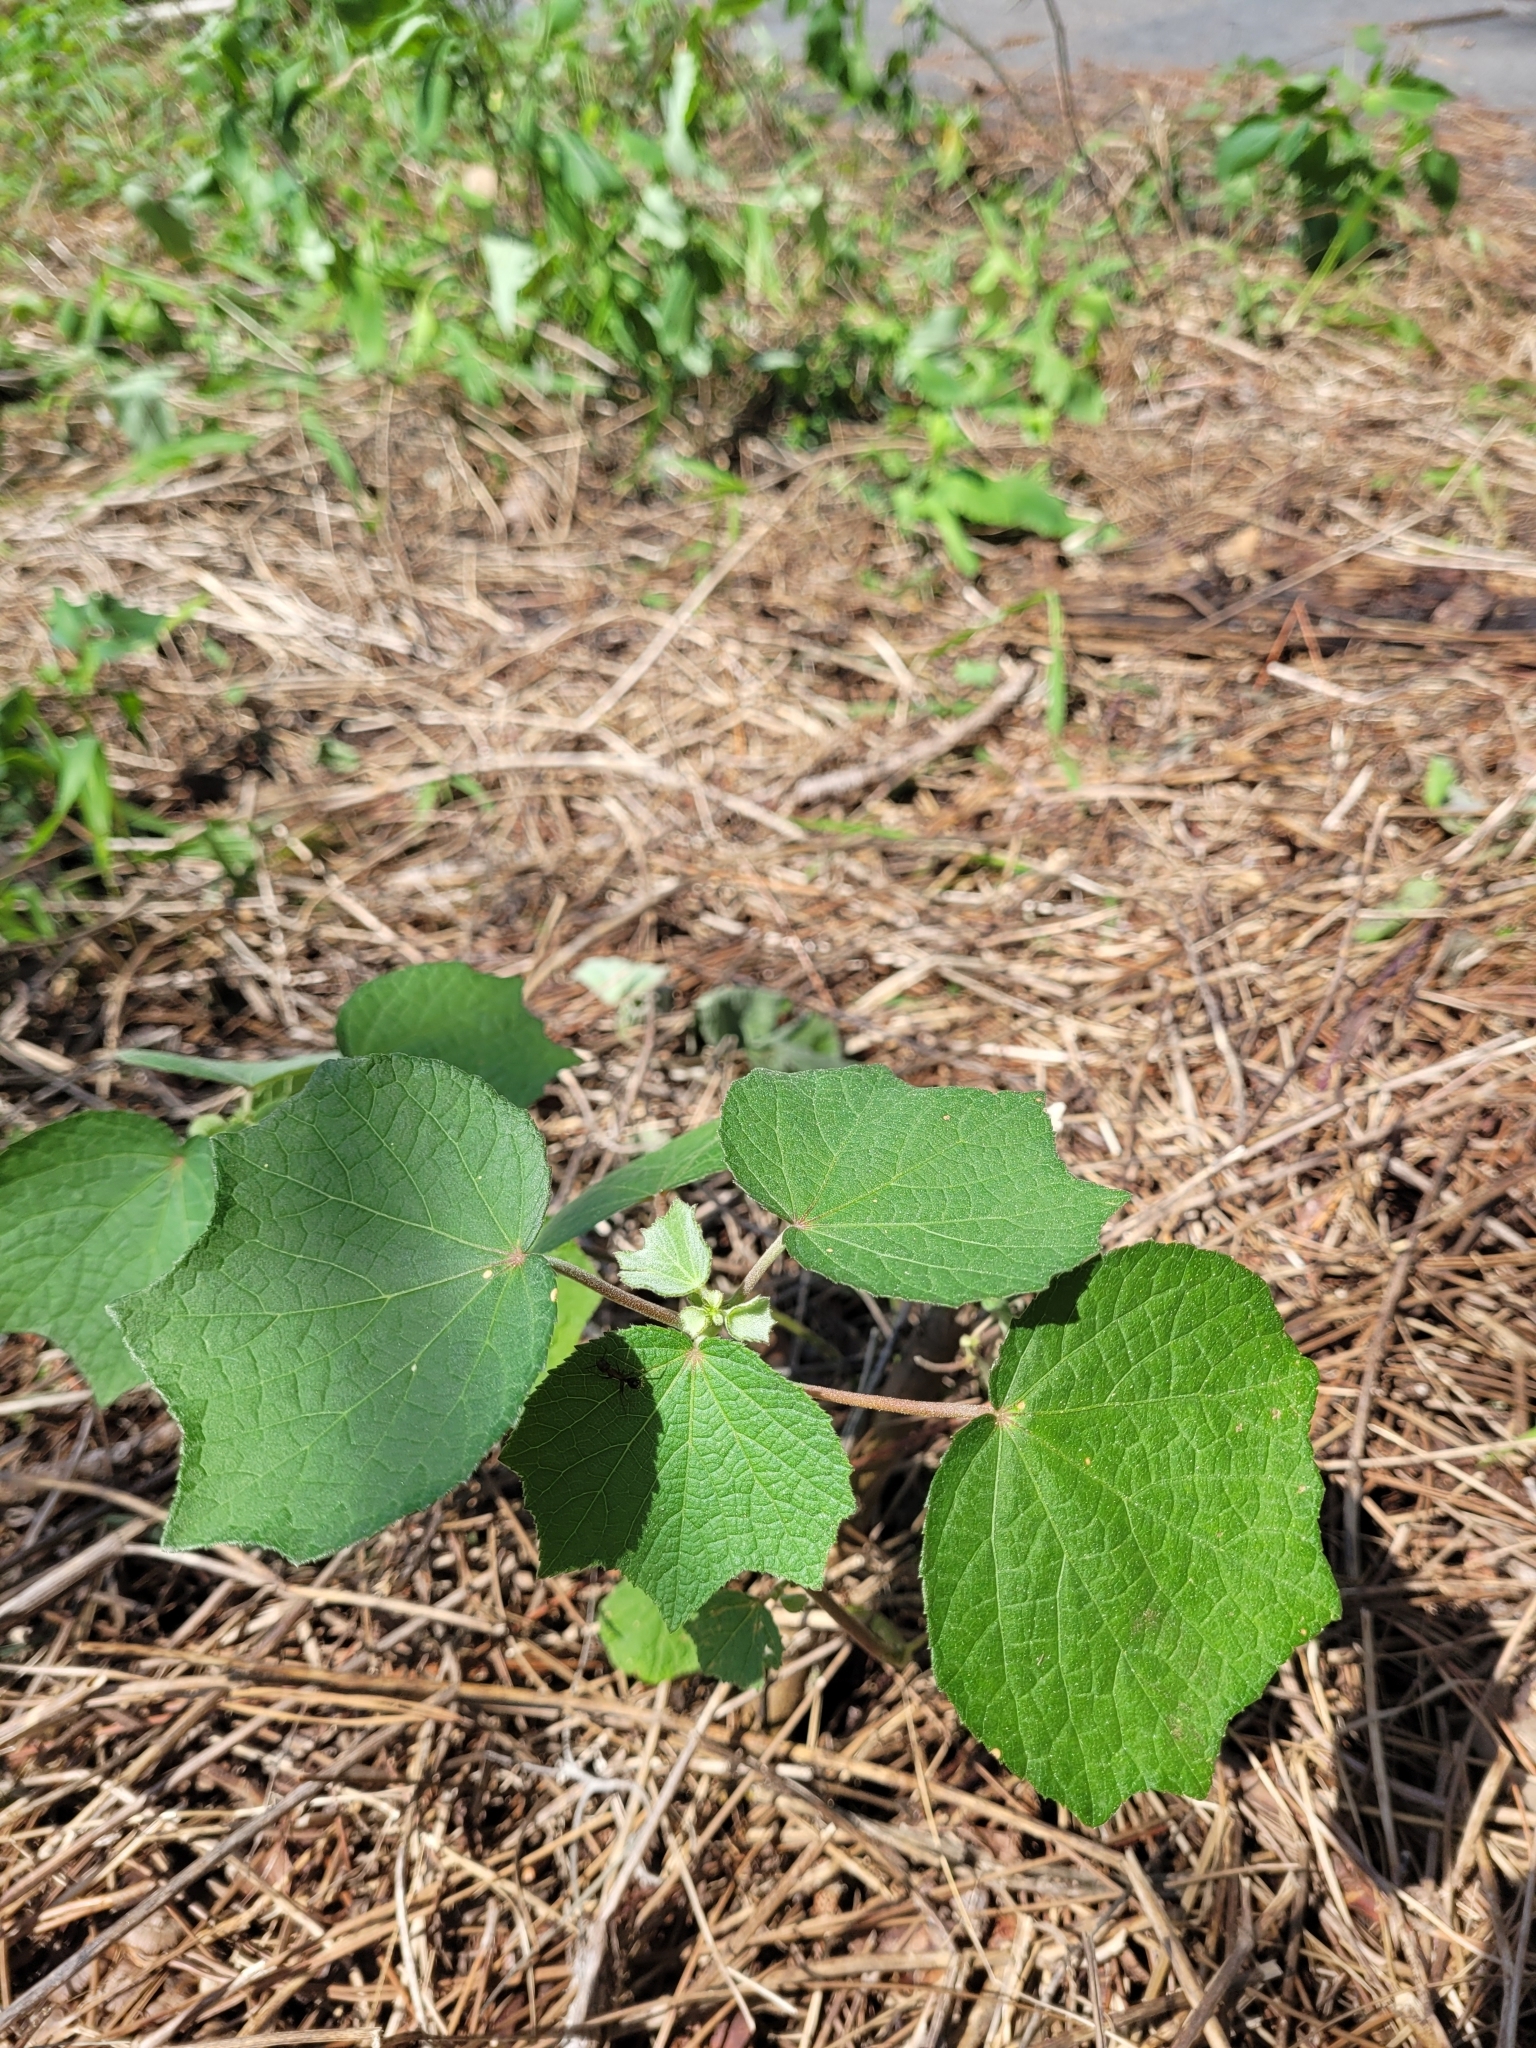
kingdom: Plantae
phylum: Tracheophyta
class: Magnoliopsida
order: Malvales
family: Malvaceae
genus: Urena
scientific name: Urena lobata
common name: Caesarweed
